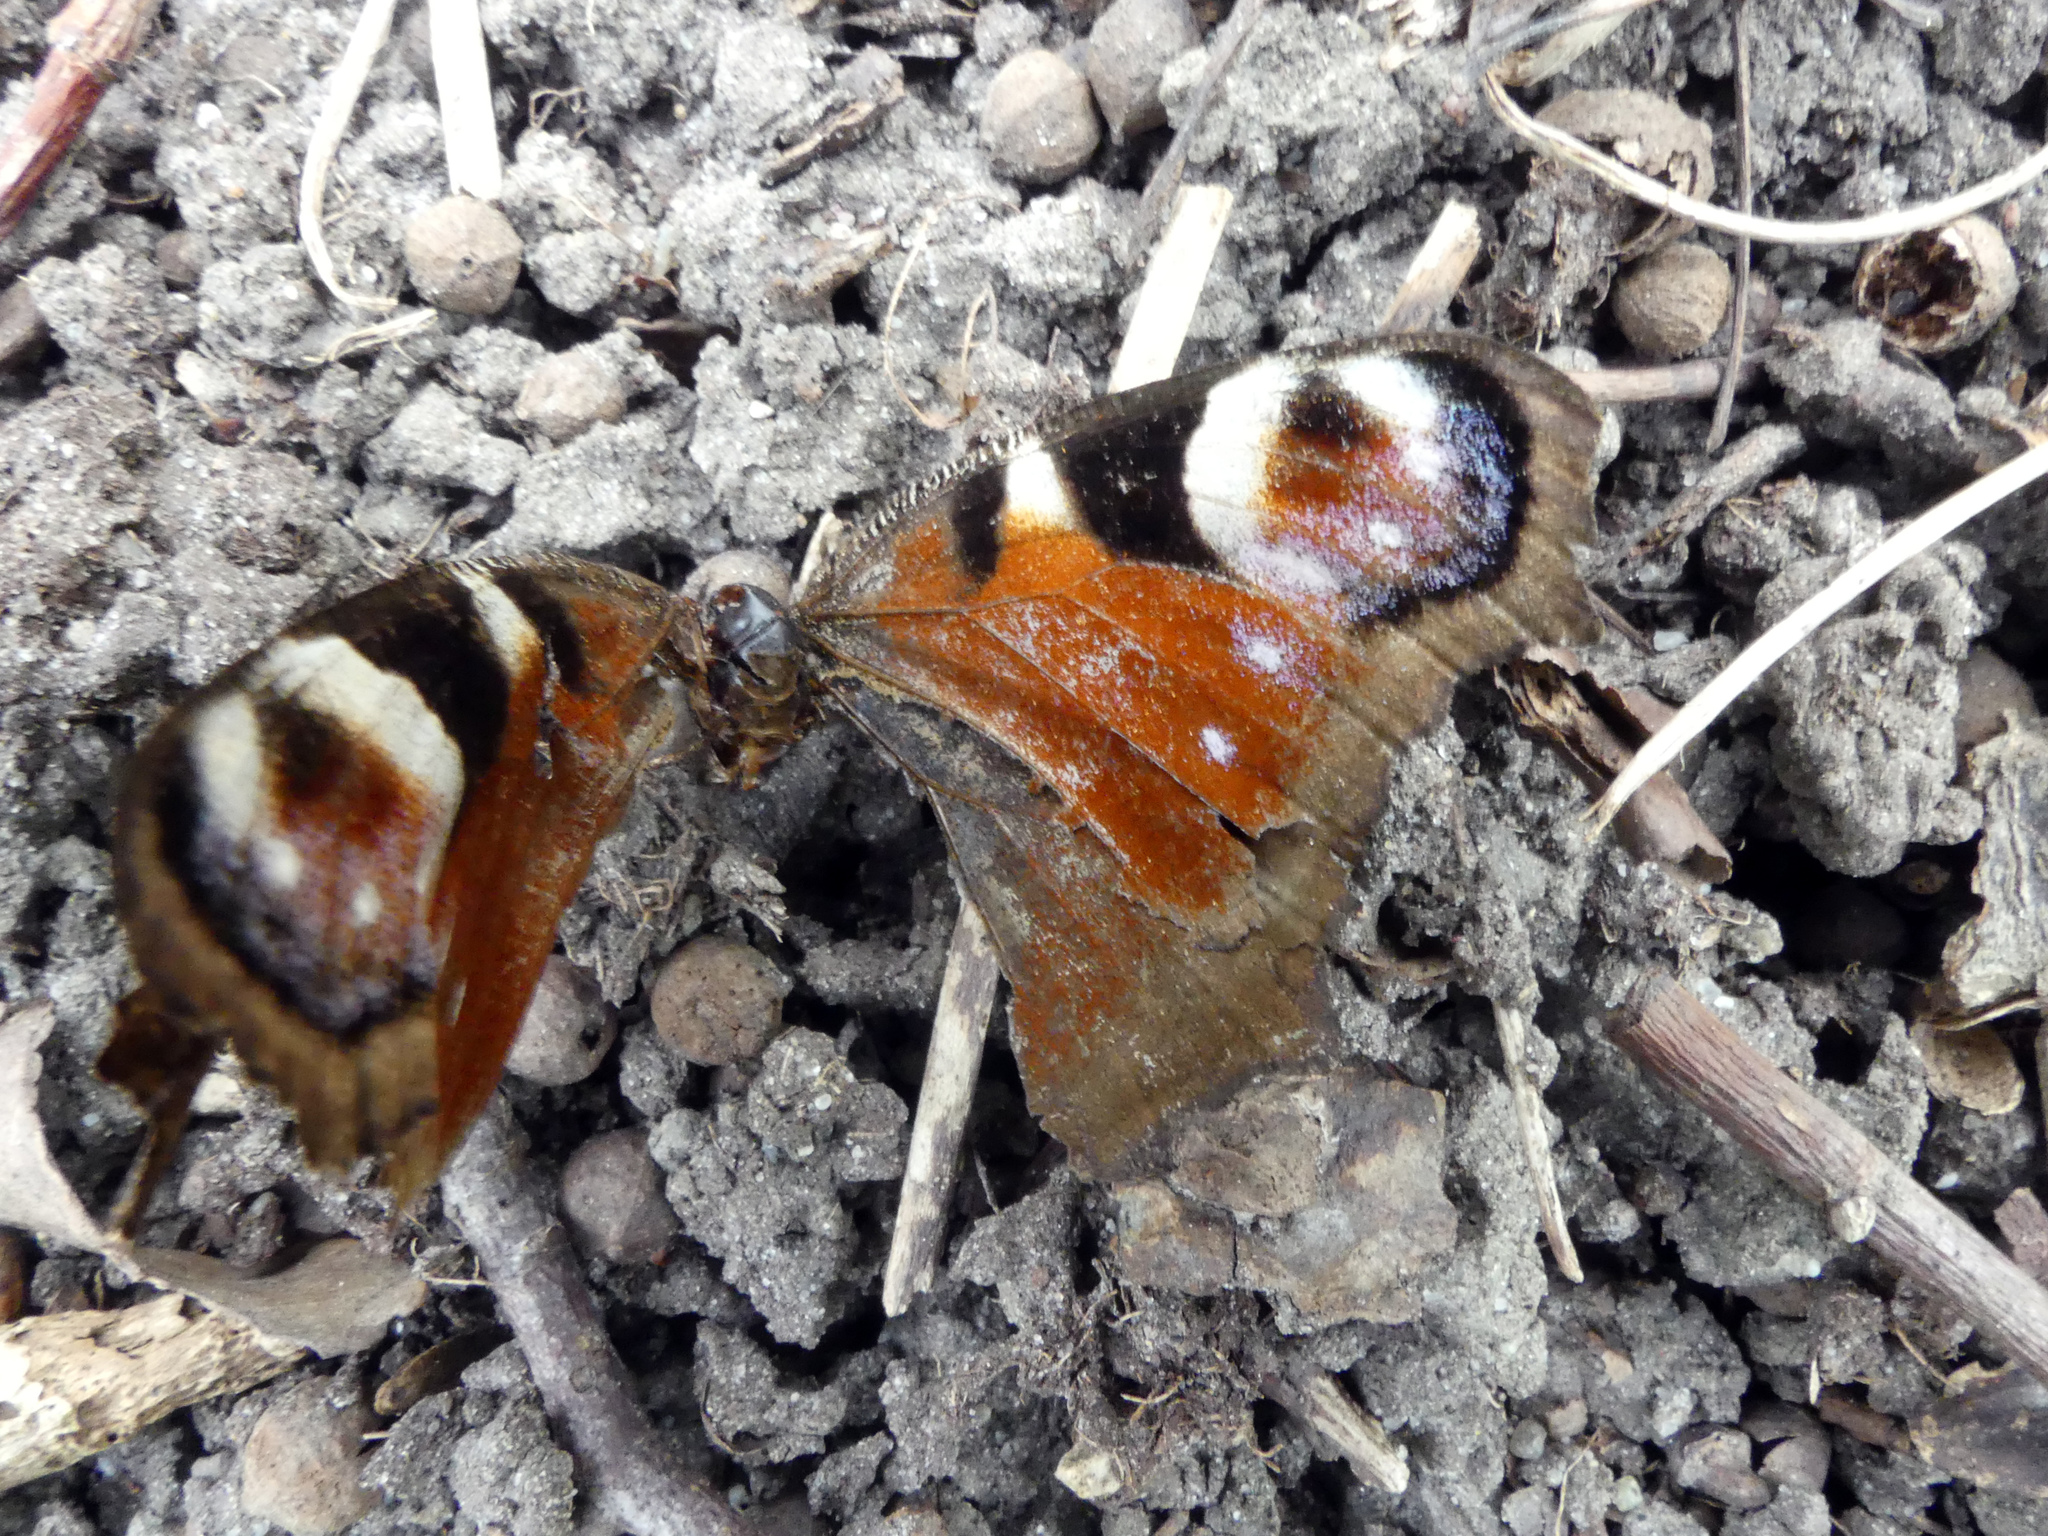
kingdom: Animalia
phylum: Arthropoda
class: Insecta
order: Lepidoptera
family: Nymphalidae
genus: Aglais
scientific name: Aglais io
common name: Peacock
